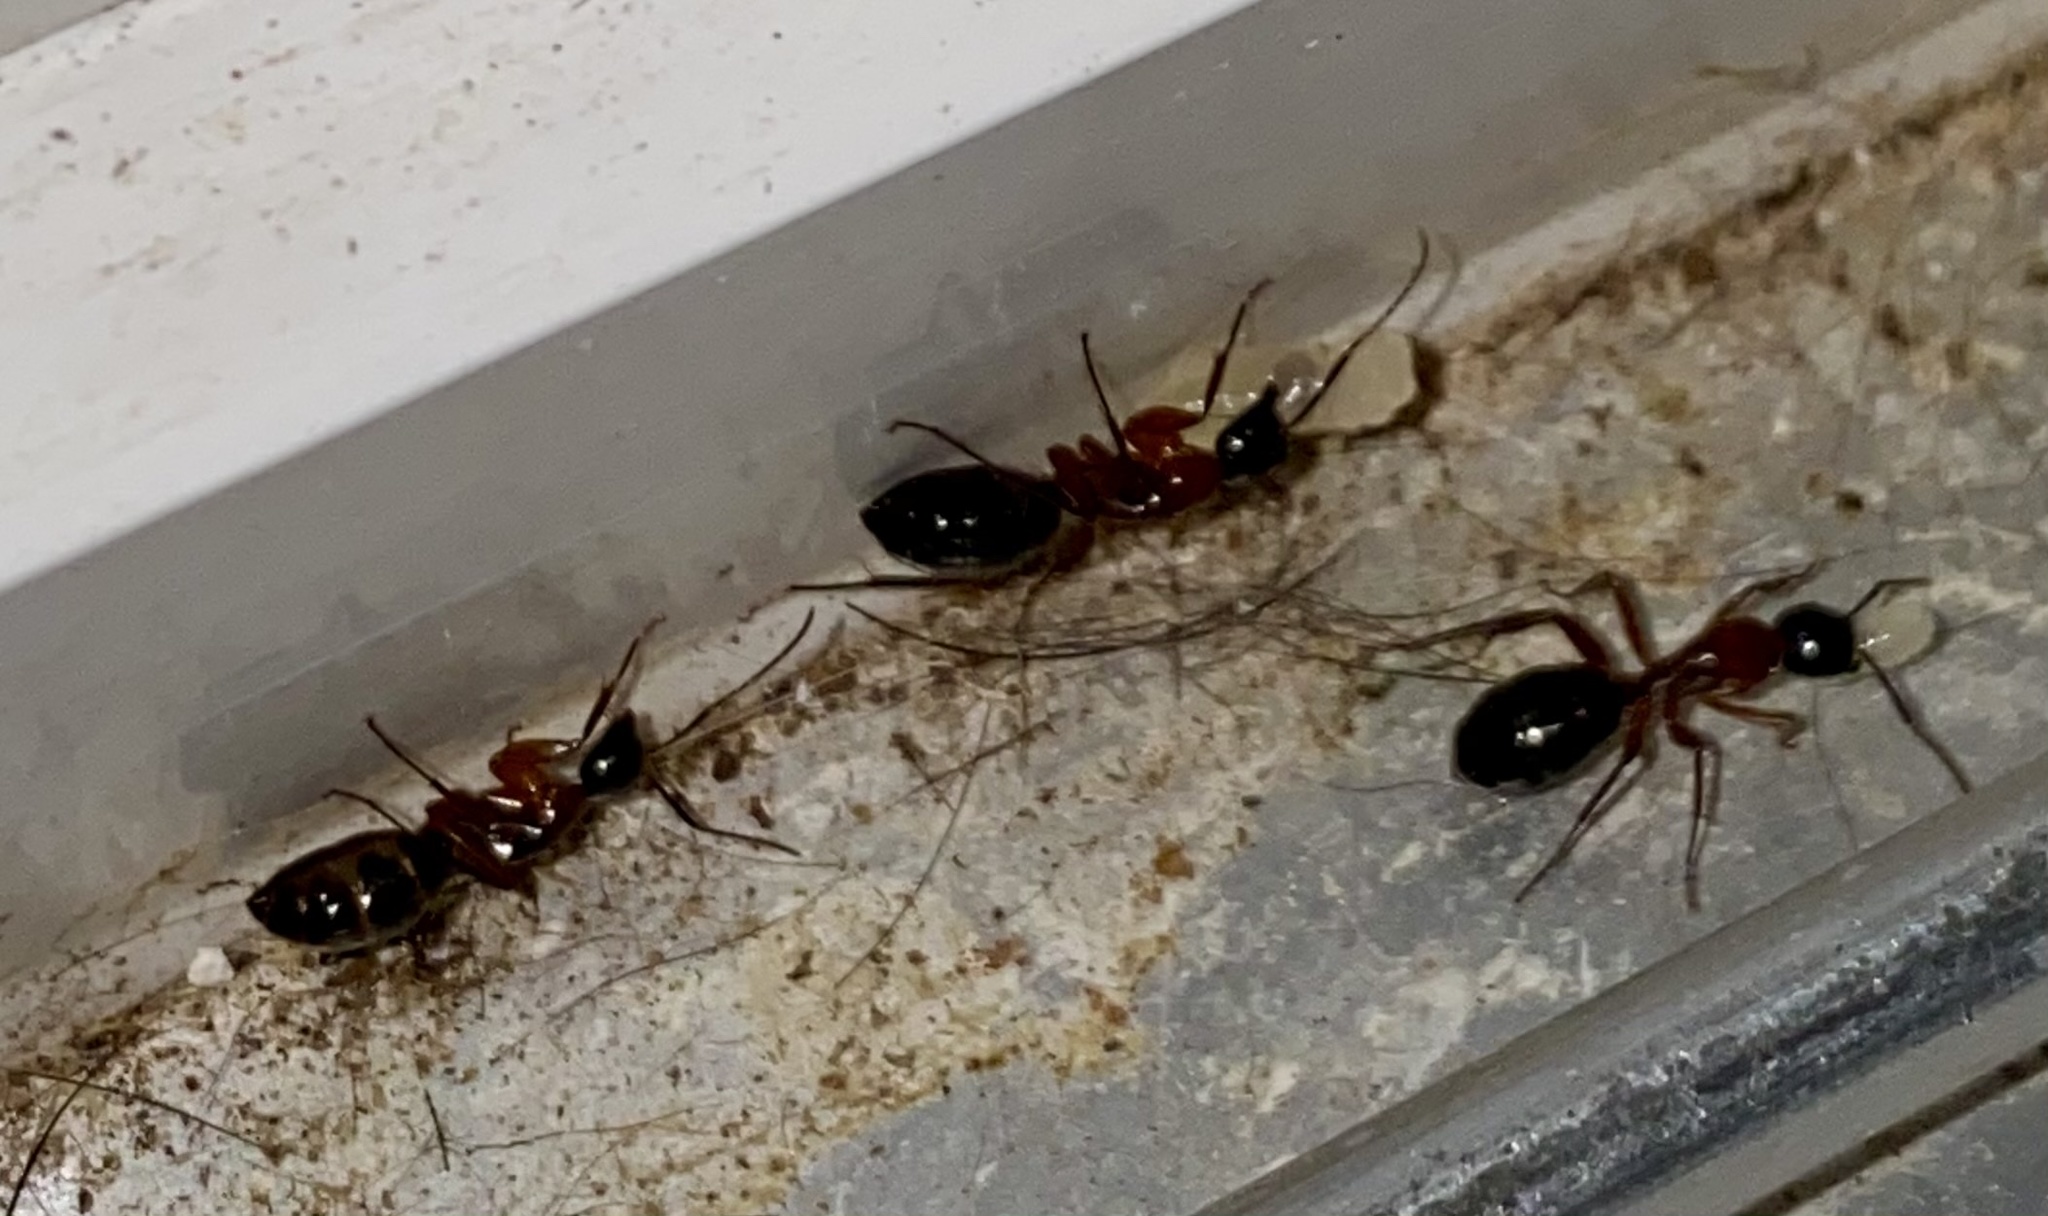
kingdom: Animalia
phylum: Arthropoda
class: Insecta
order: Hymenoptera
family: Formicidae
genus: Camponotus
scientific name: Camponotus texanus
